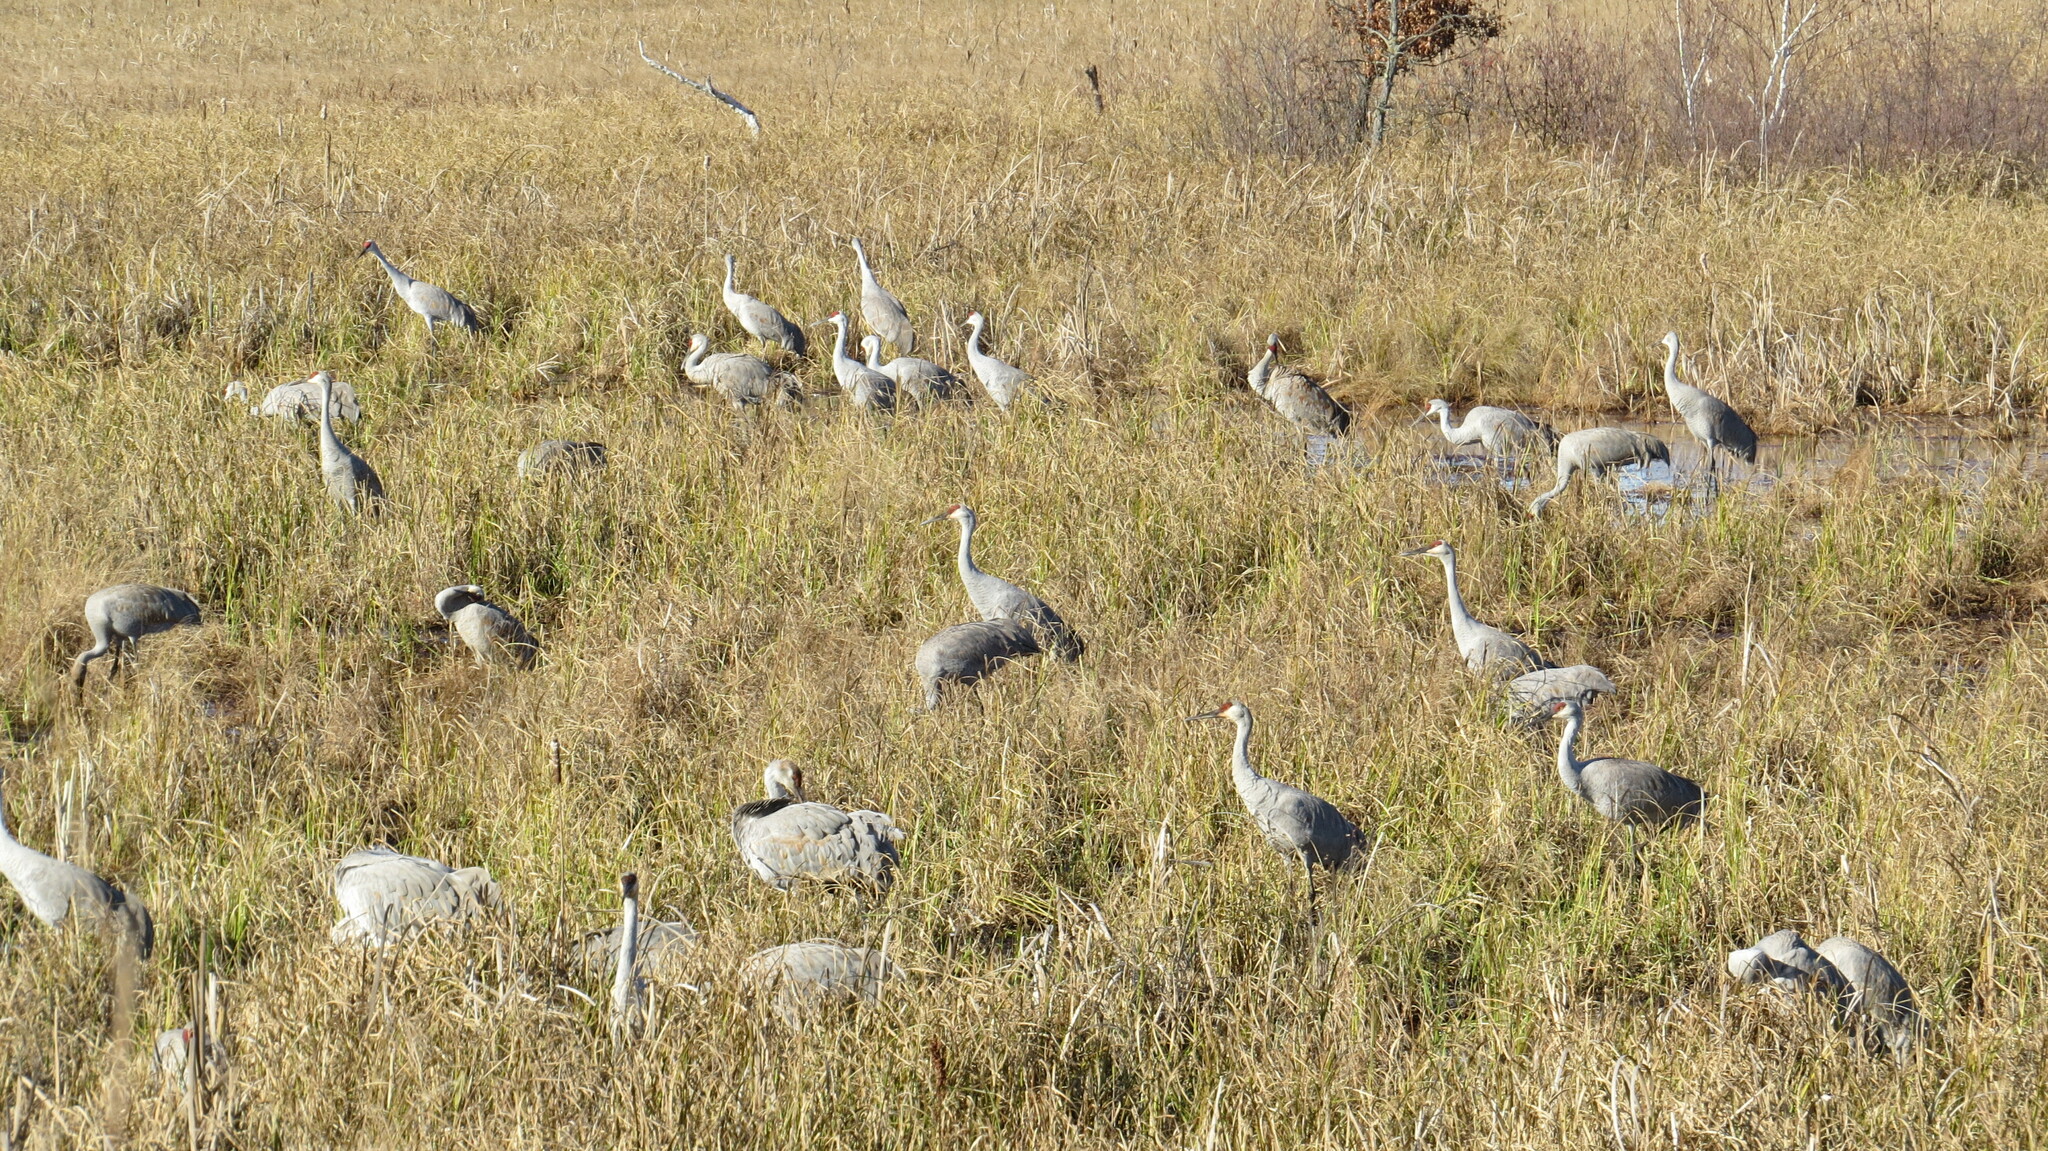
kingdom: Animalia
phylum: Chordata
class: Aves
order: Gruiformes
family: Gruidae
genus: Grus
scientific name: Grus canadensis
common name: Sandhill crane
